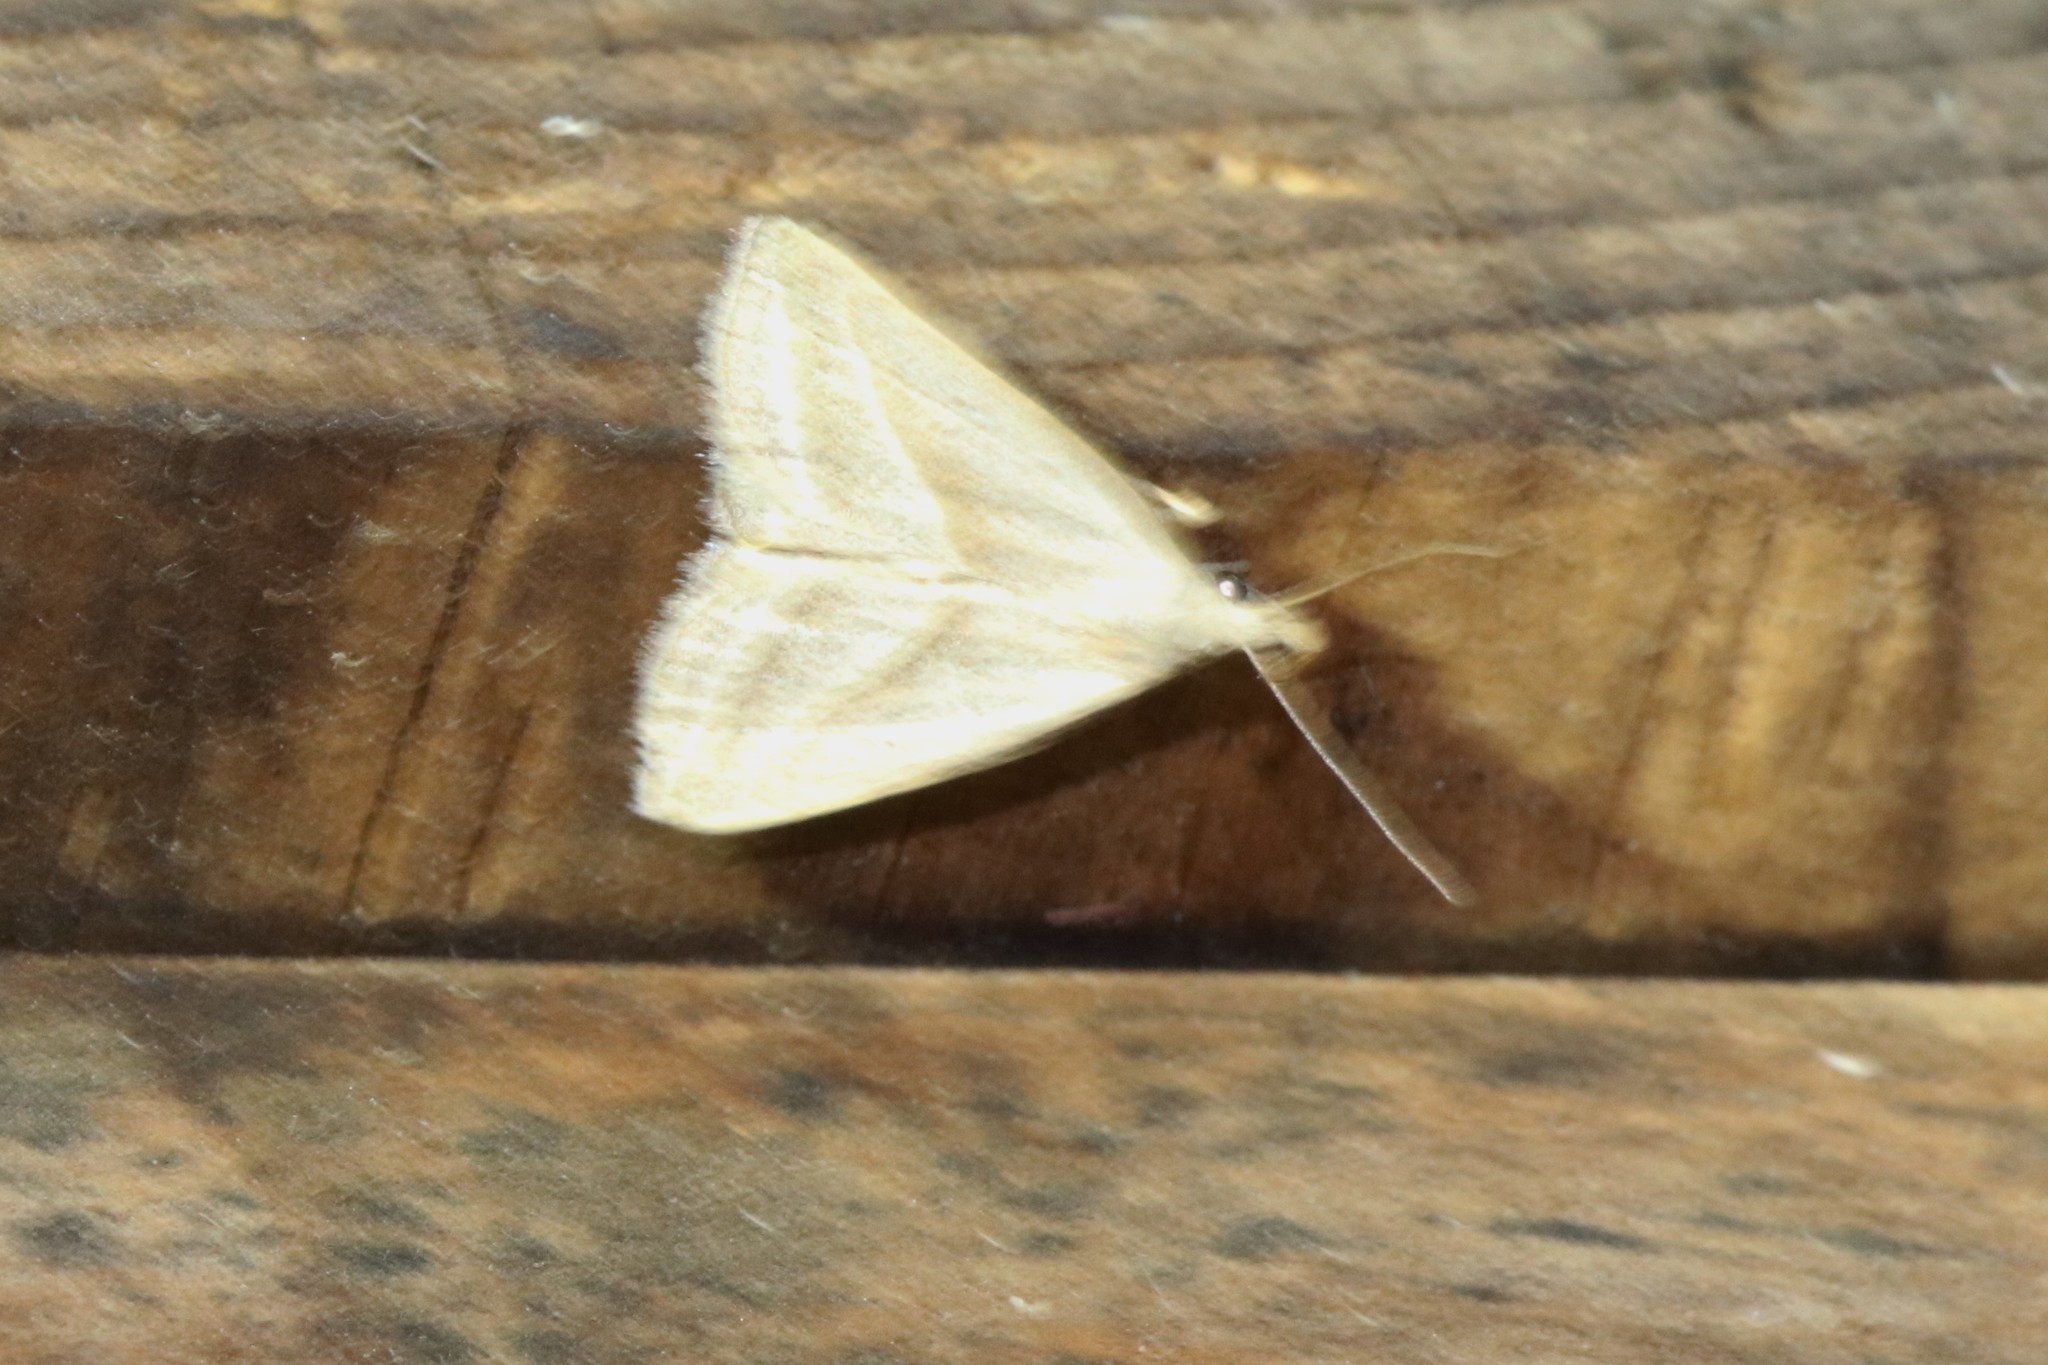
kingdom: Animalia
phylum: Arthropoda
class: Insecta
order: Lepidoptera
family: Erebidae
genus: Macrochilo
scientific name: Macrochilo absorptalis
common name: Slant-lined owlet
